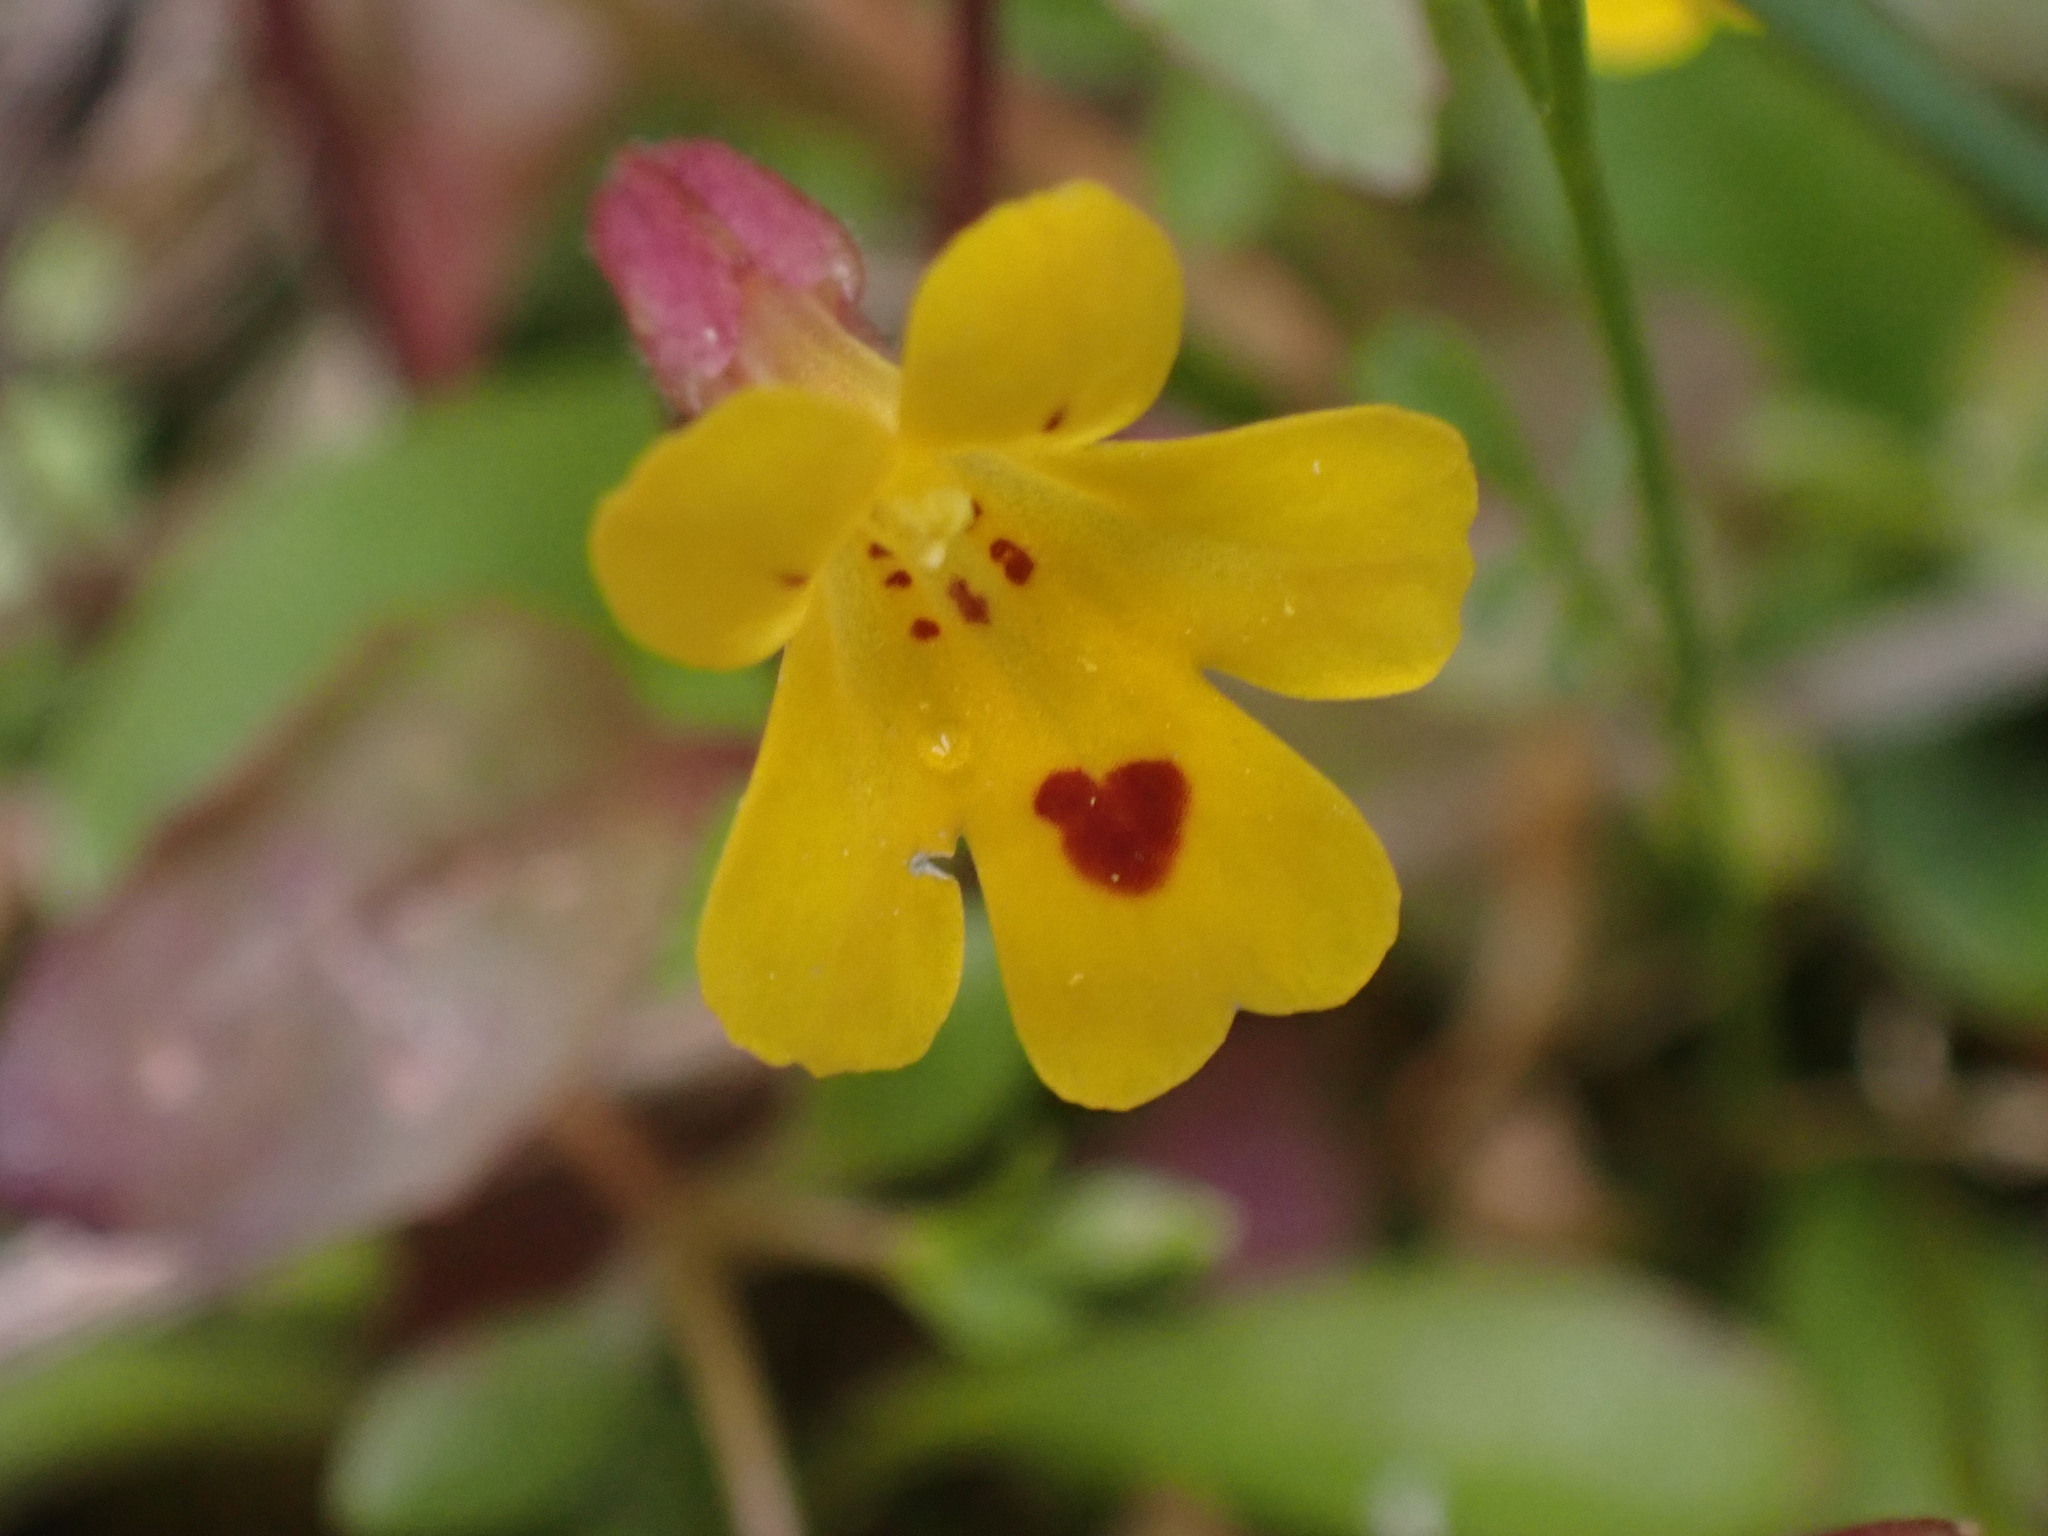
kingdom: Plantae
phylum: Tracheophyta
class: Magnoliopsida
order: Lamiales
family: Phrymaceae
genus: Erythranthe
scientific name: Erythranthe alsinoides
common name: Chickweed monkeyflower
